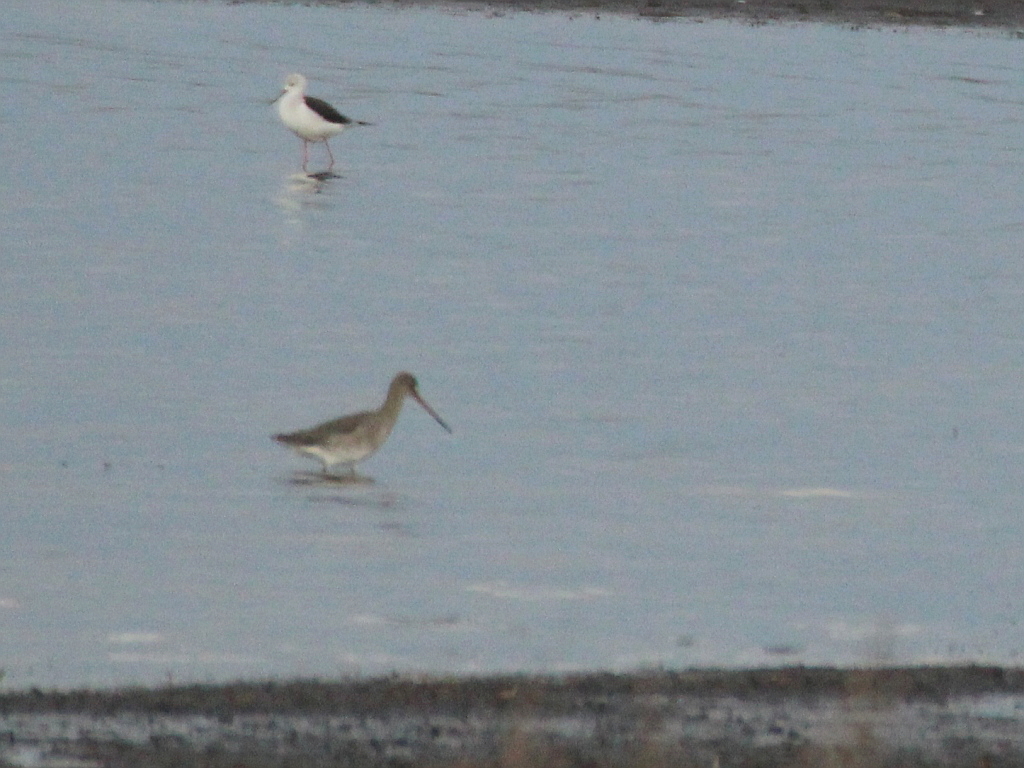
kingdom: Animalia
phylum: Chordata
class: Aves
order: Charadriiformes
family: Scolopacidae
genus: Limosa
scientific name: Limosa limosa
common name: Black-tailed godwit
